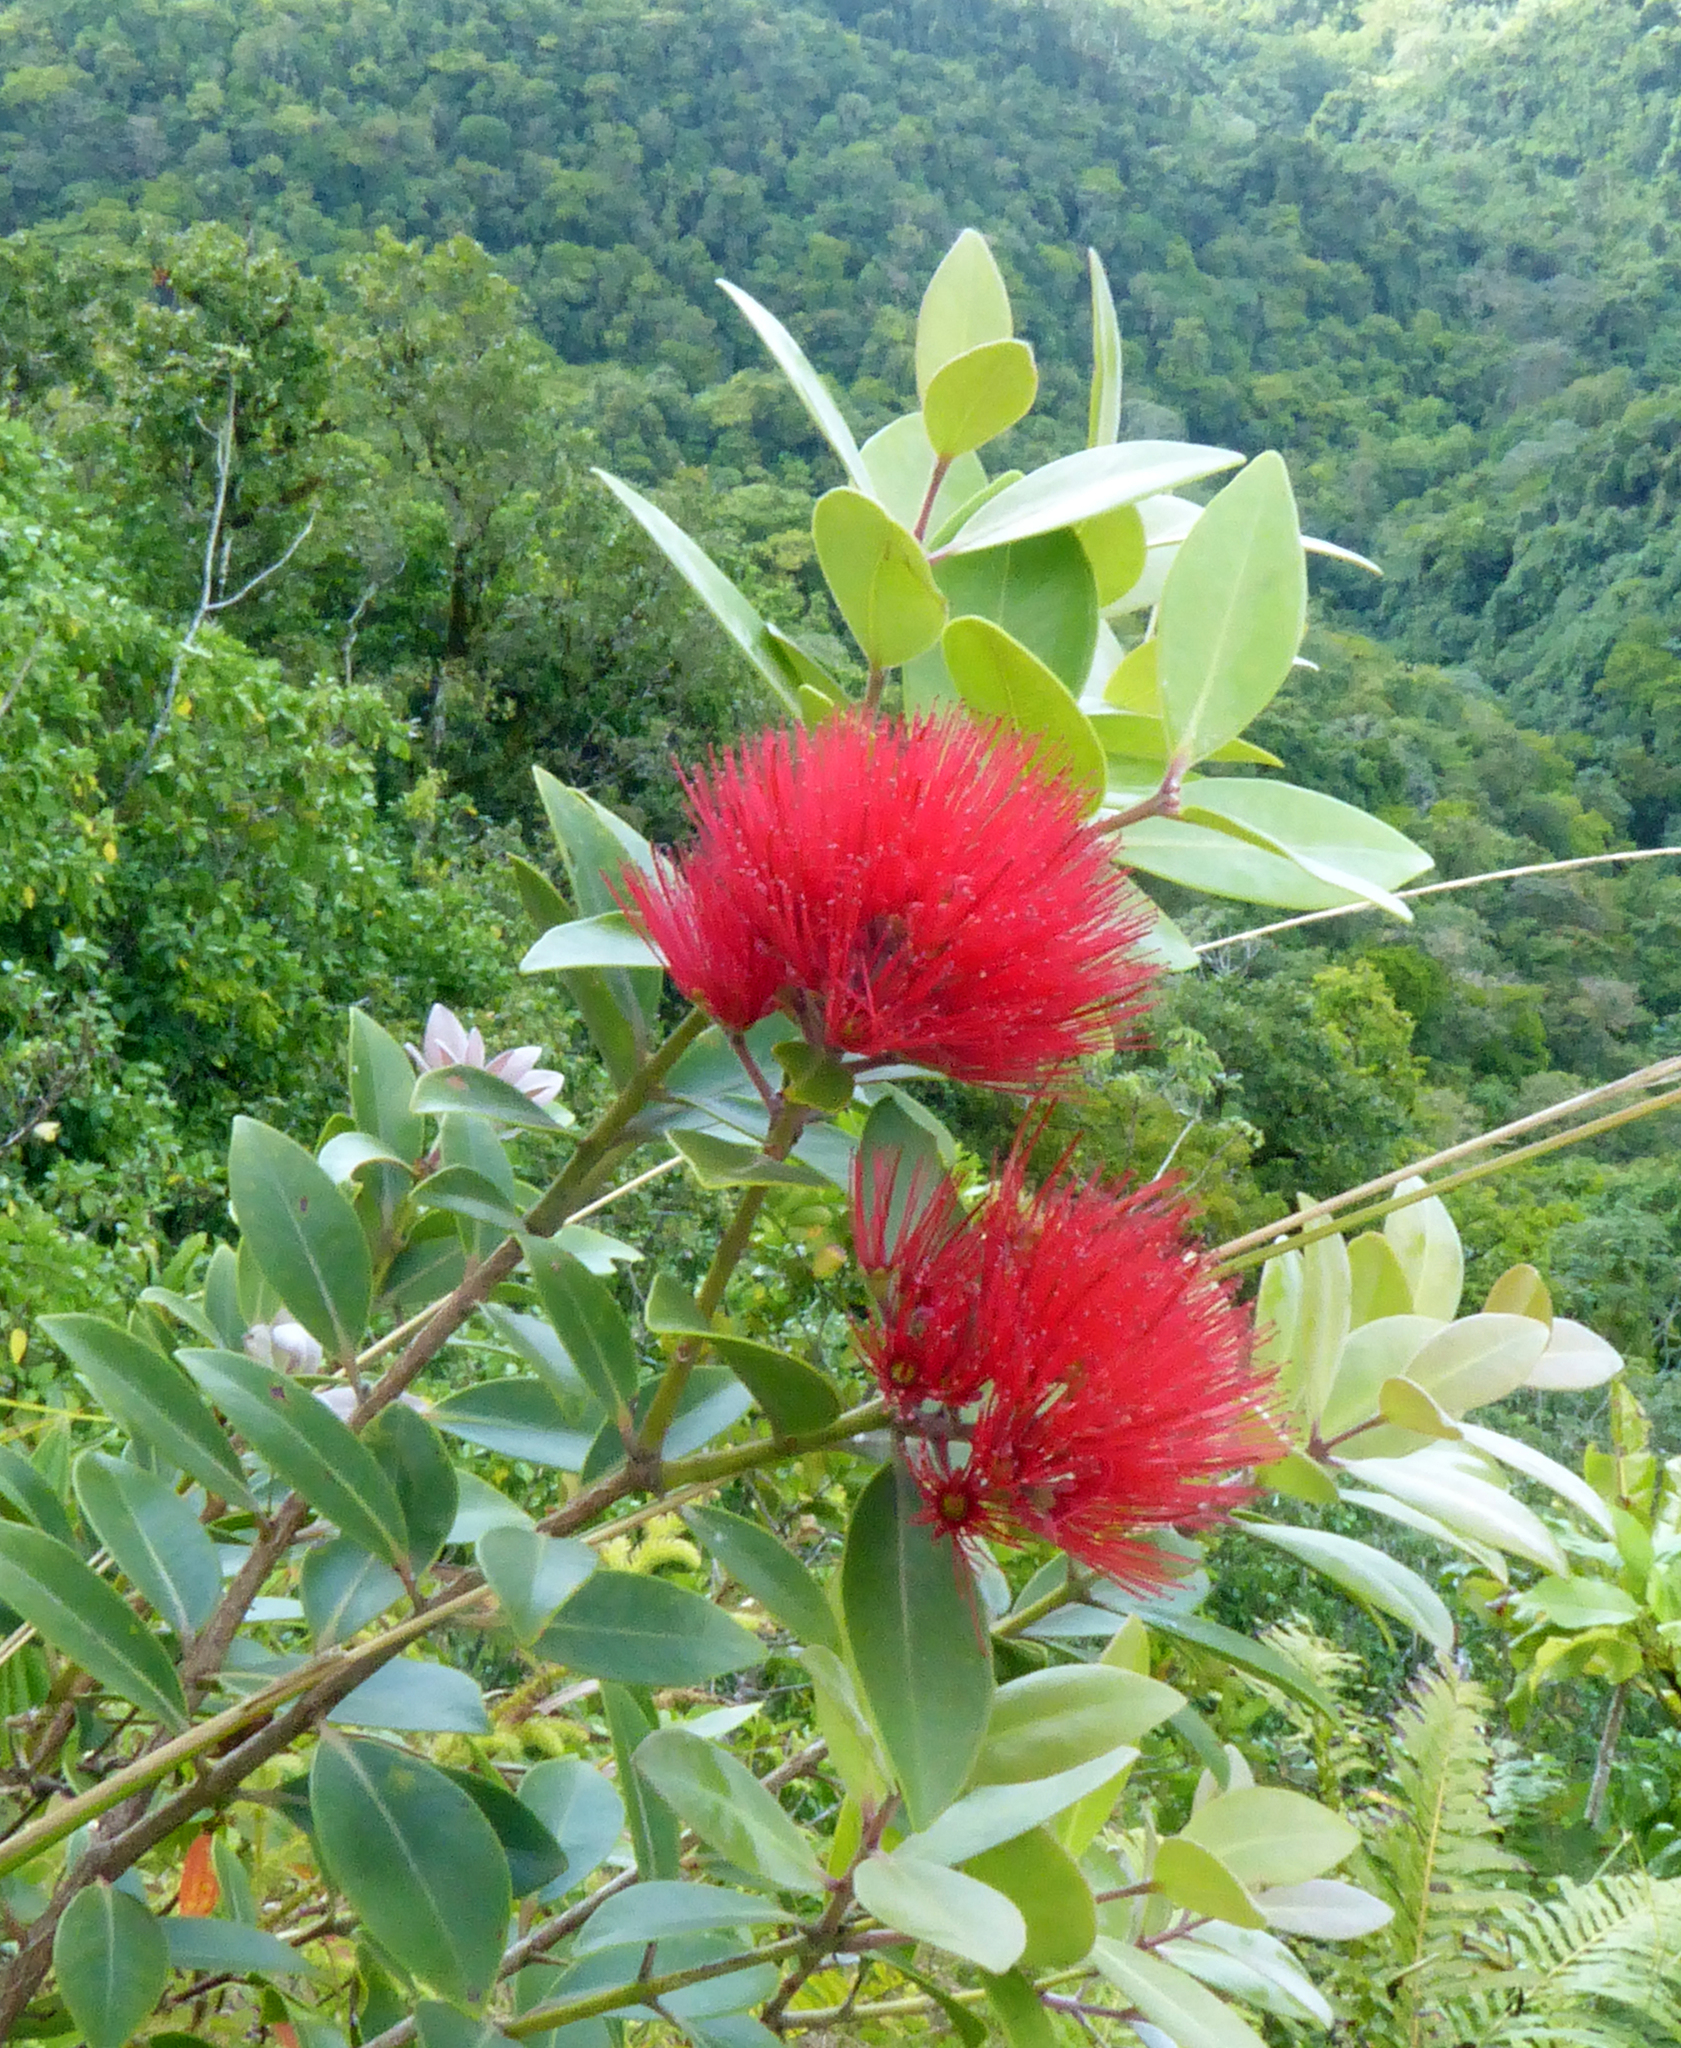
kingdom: Plantae
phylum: Tracheophyta
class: Magnoliopsida
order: Myrtales
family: Myrtaceae
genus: Metrosideros
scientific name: Metrosideros collina
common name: Vunga
